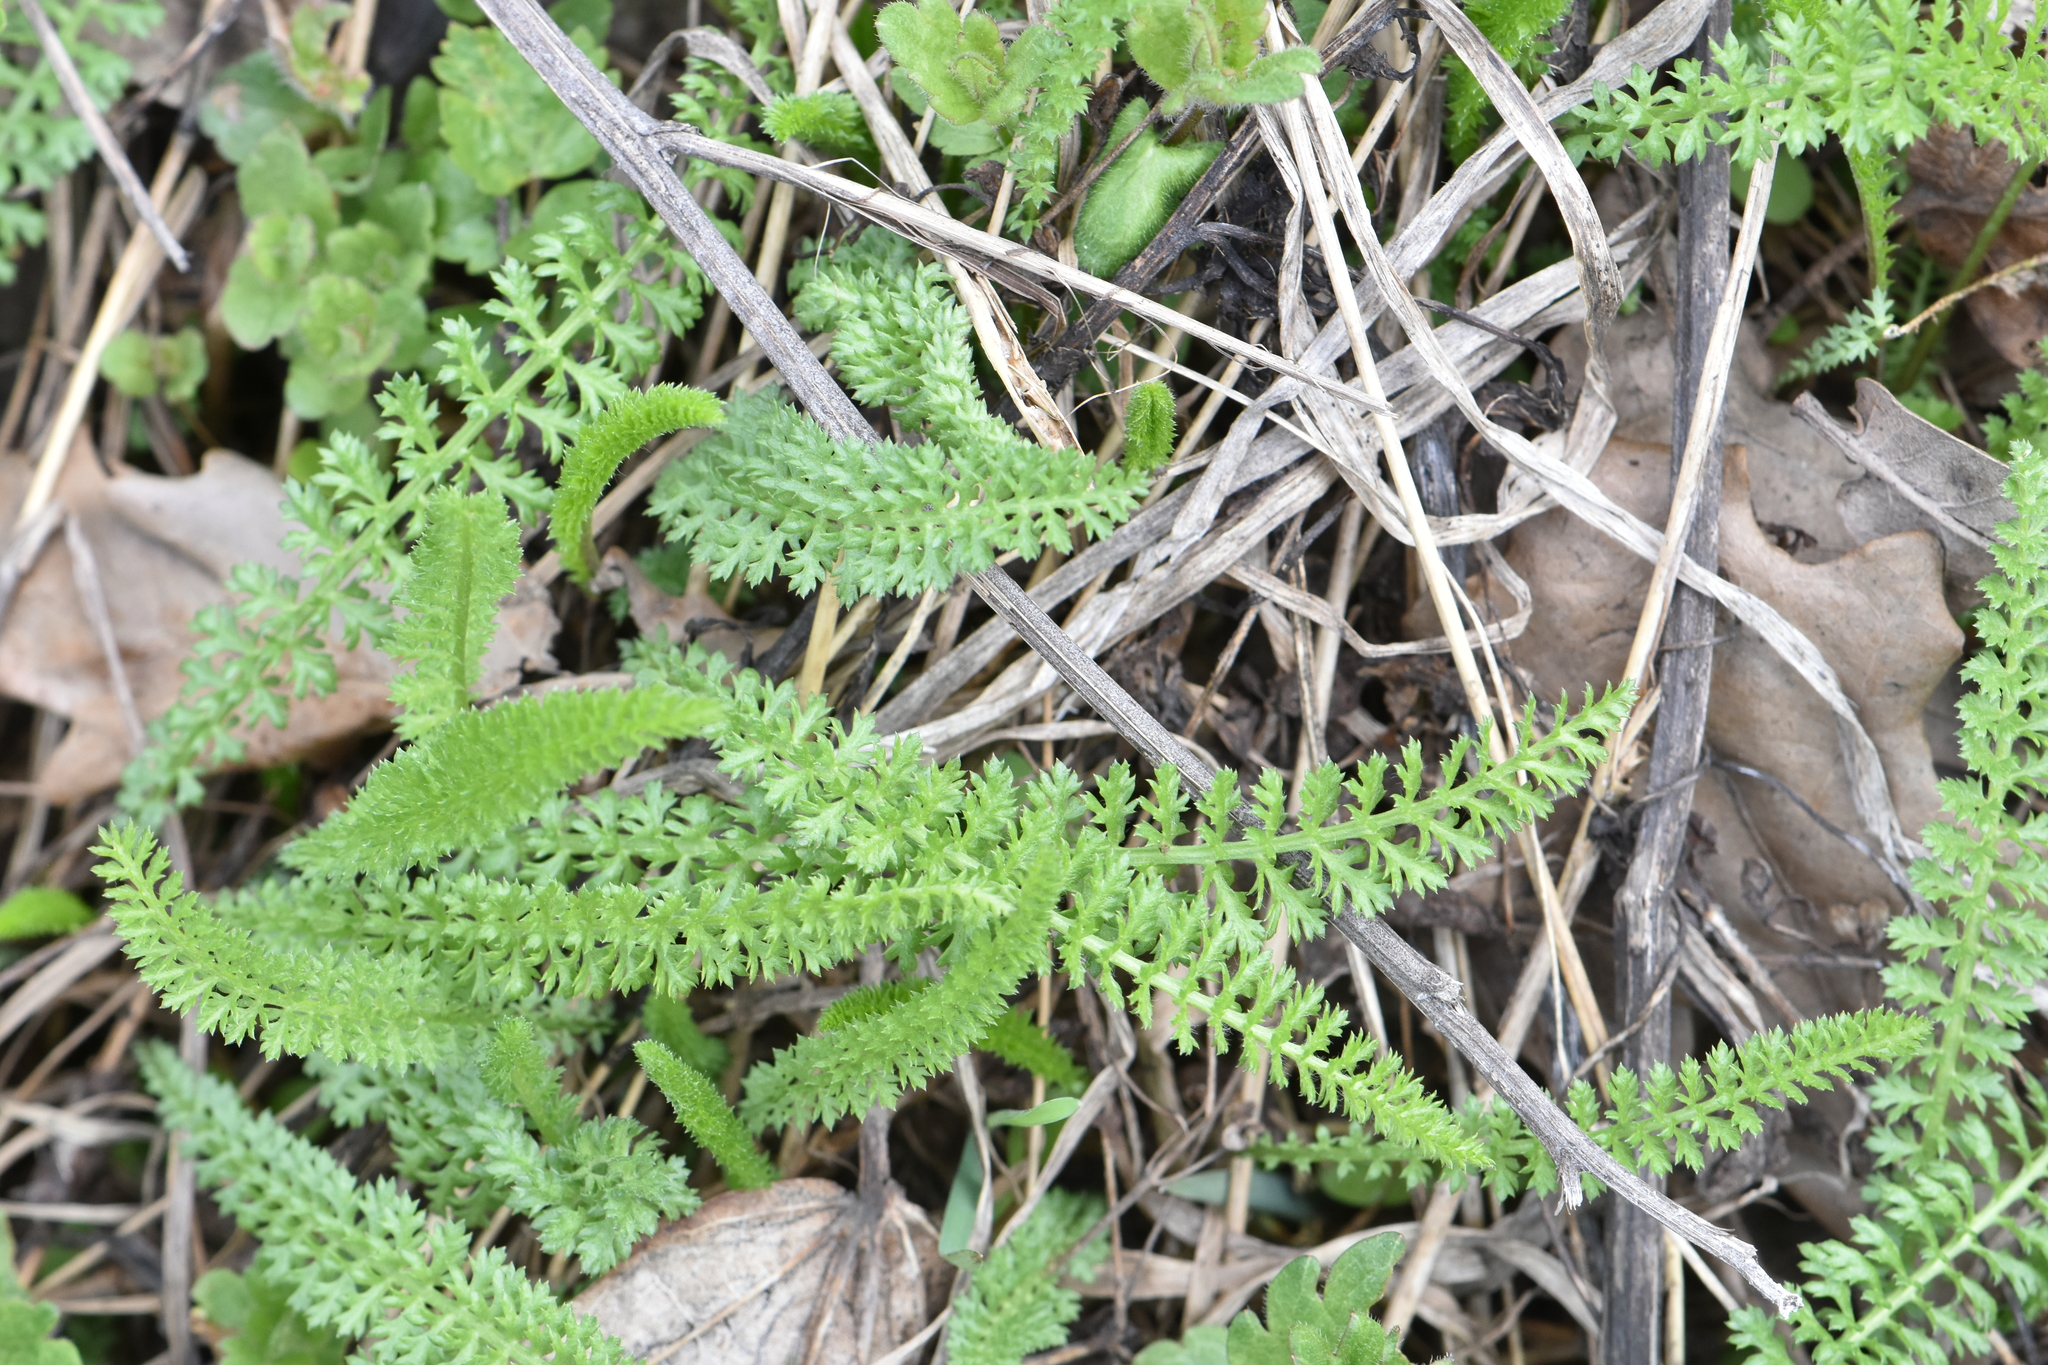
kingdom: Plantae
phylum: Tracheophyta
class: Magnoliopsida
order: Asterales
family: Asteraceae
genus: Achillea
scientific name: Achillea millefolium
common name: Yarrow
